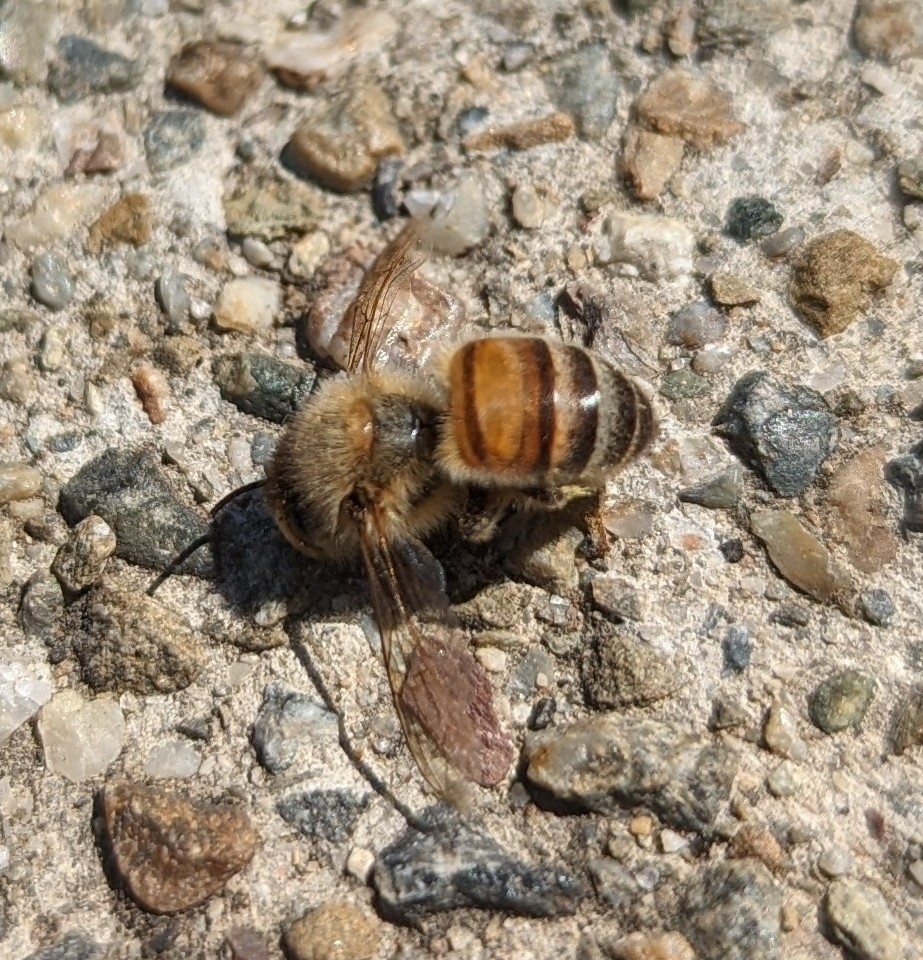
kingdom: Animalia
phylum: Arthropoda
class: Insecta
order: Hymenoptera
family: Apidae
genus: Apis
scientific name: Apis mellifera
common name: Honey bee
